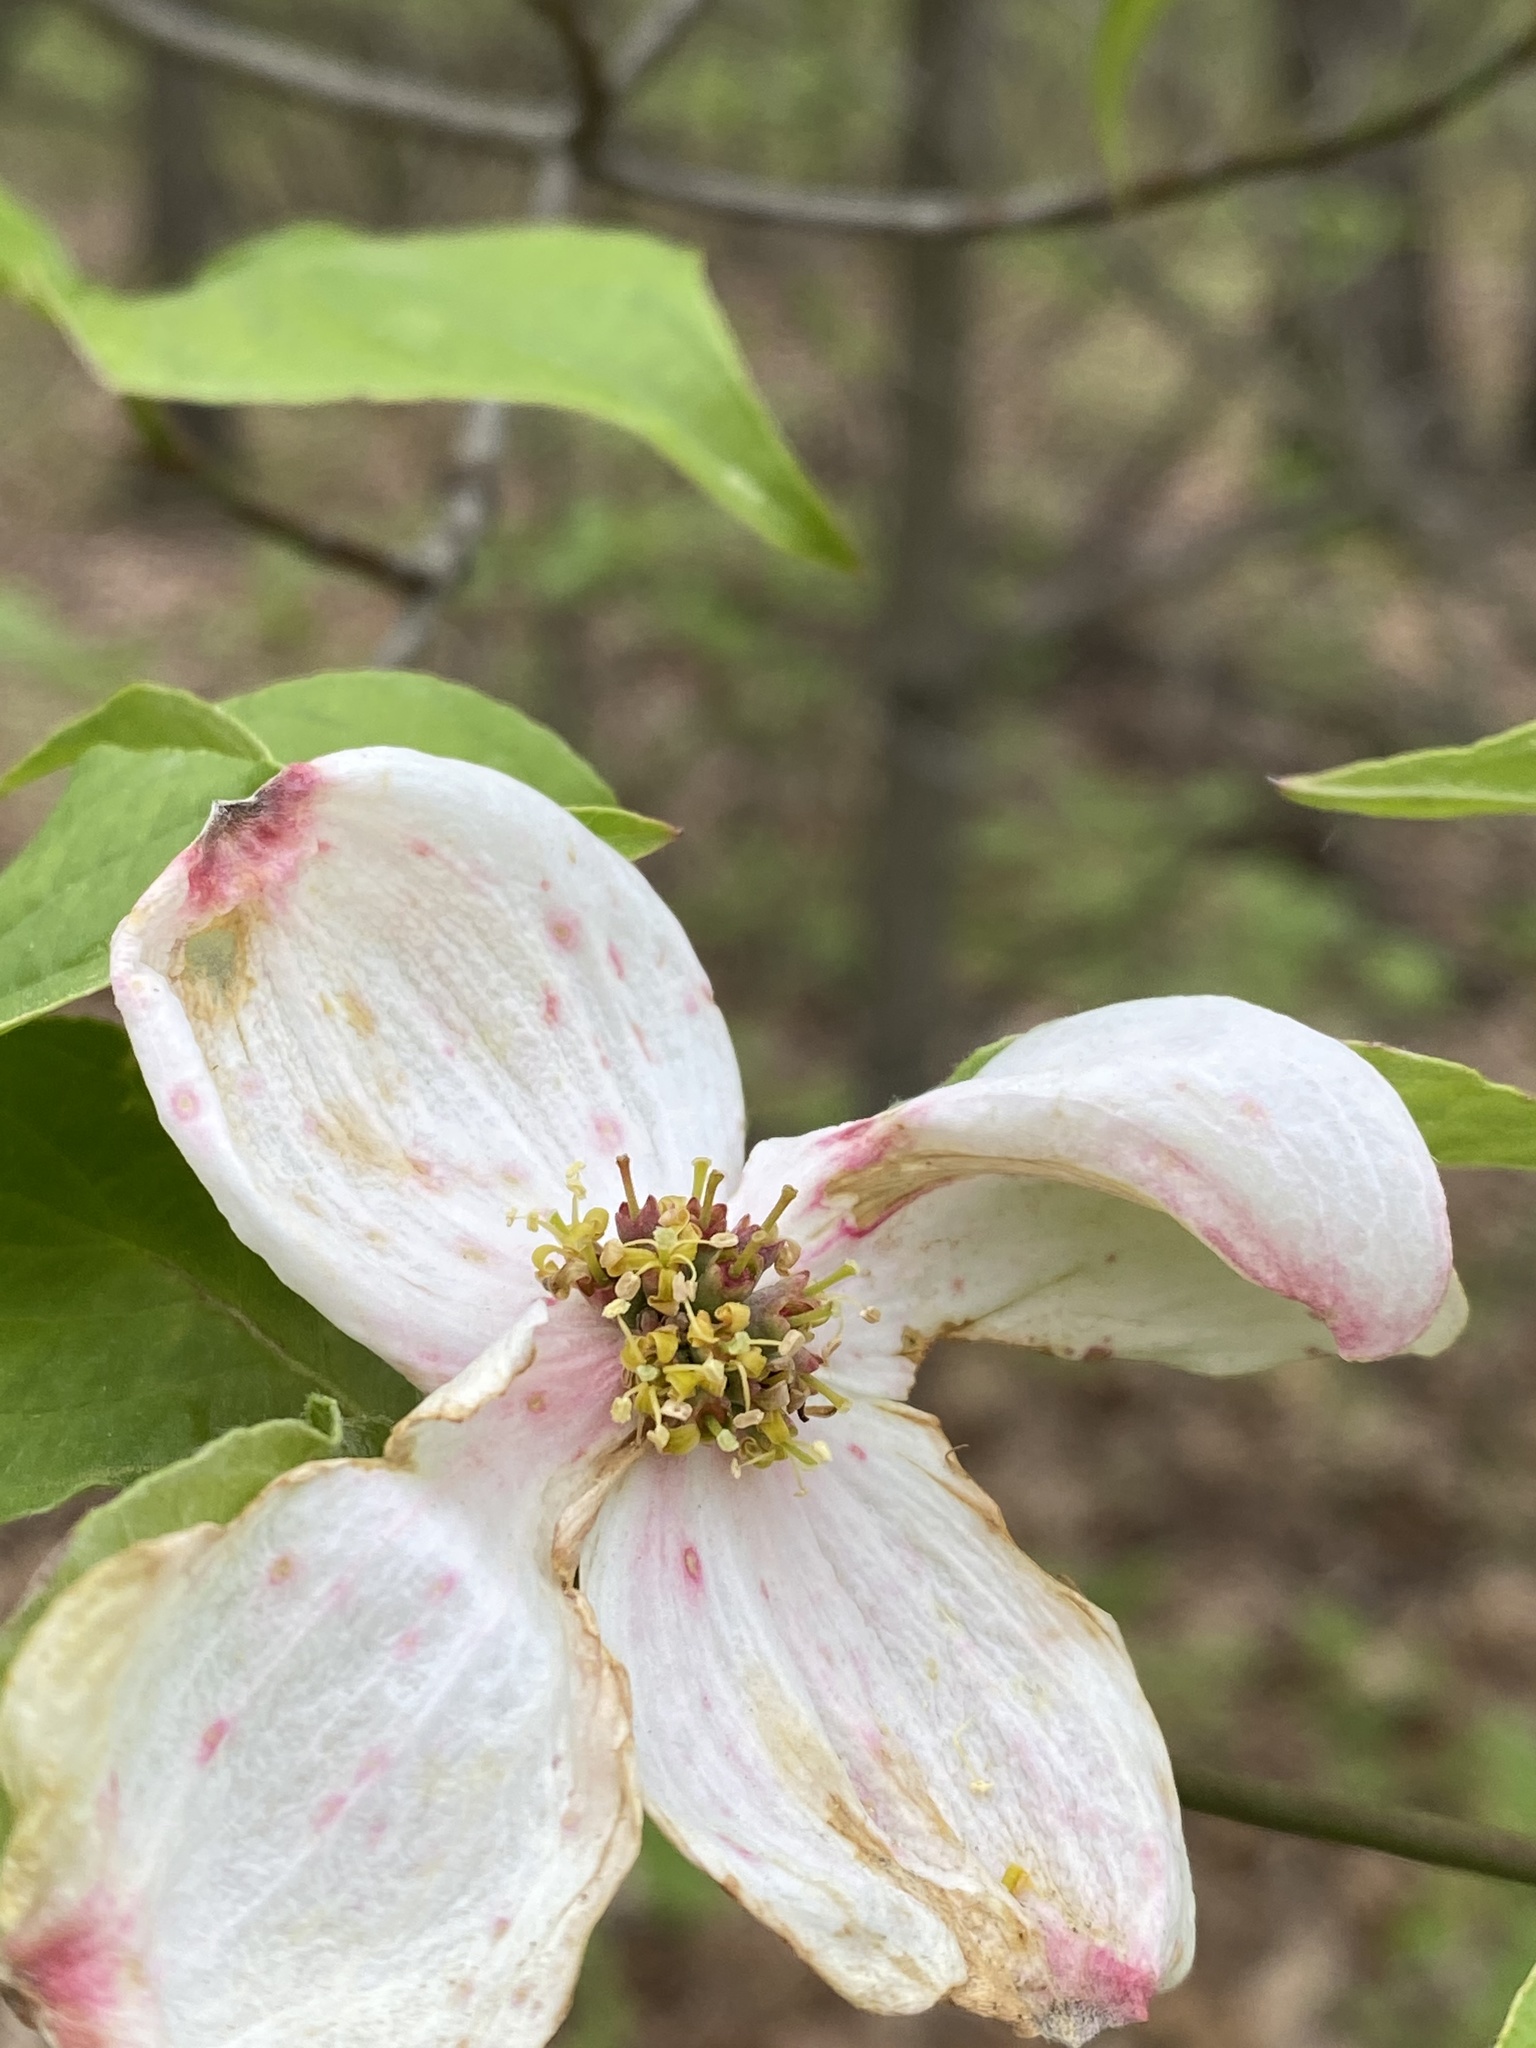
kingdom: Plantae
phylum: Tracheophyta
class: Magnoliopsida
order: Cornales
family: Cornaceae
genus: Cornus
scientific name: Cornus florida
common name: Flowering dogwood
